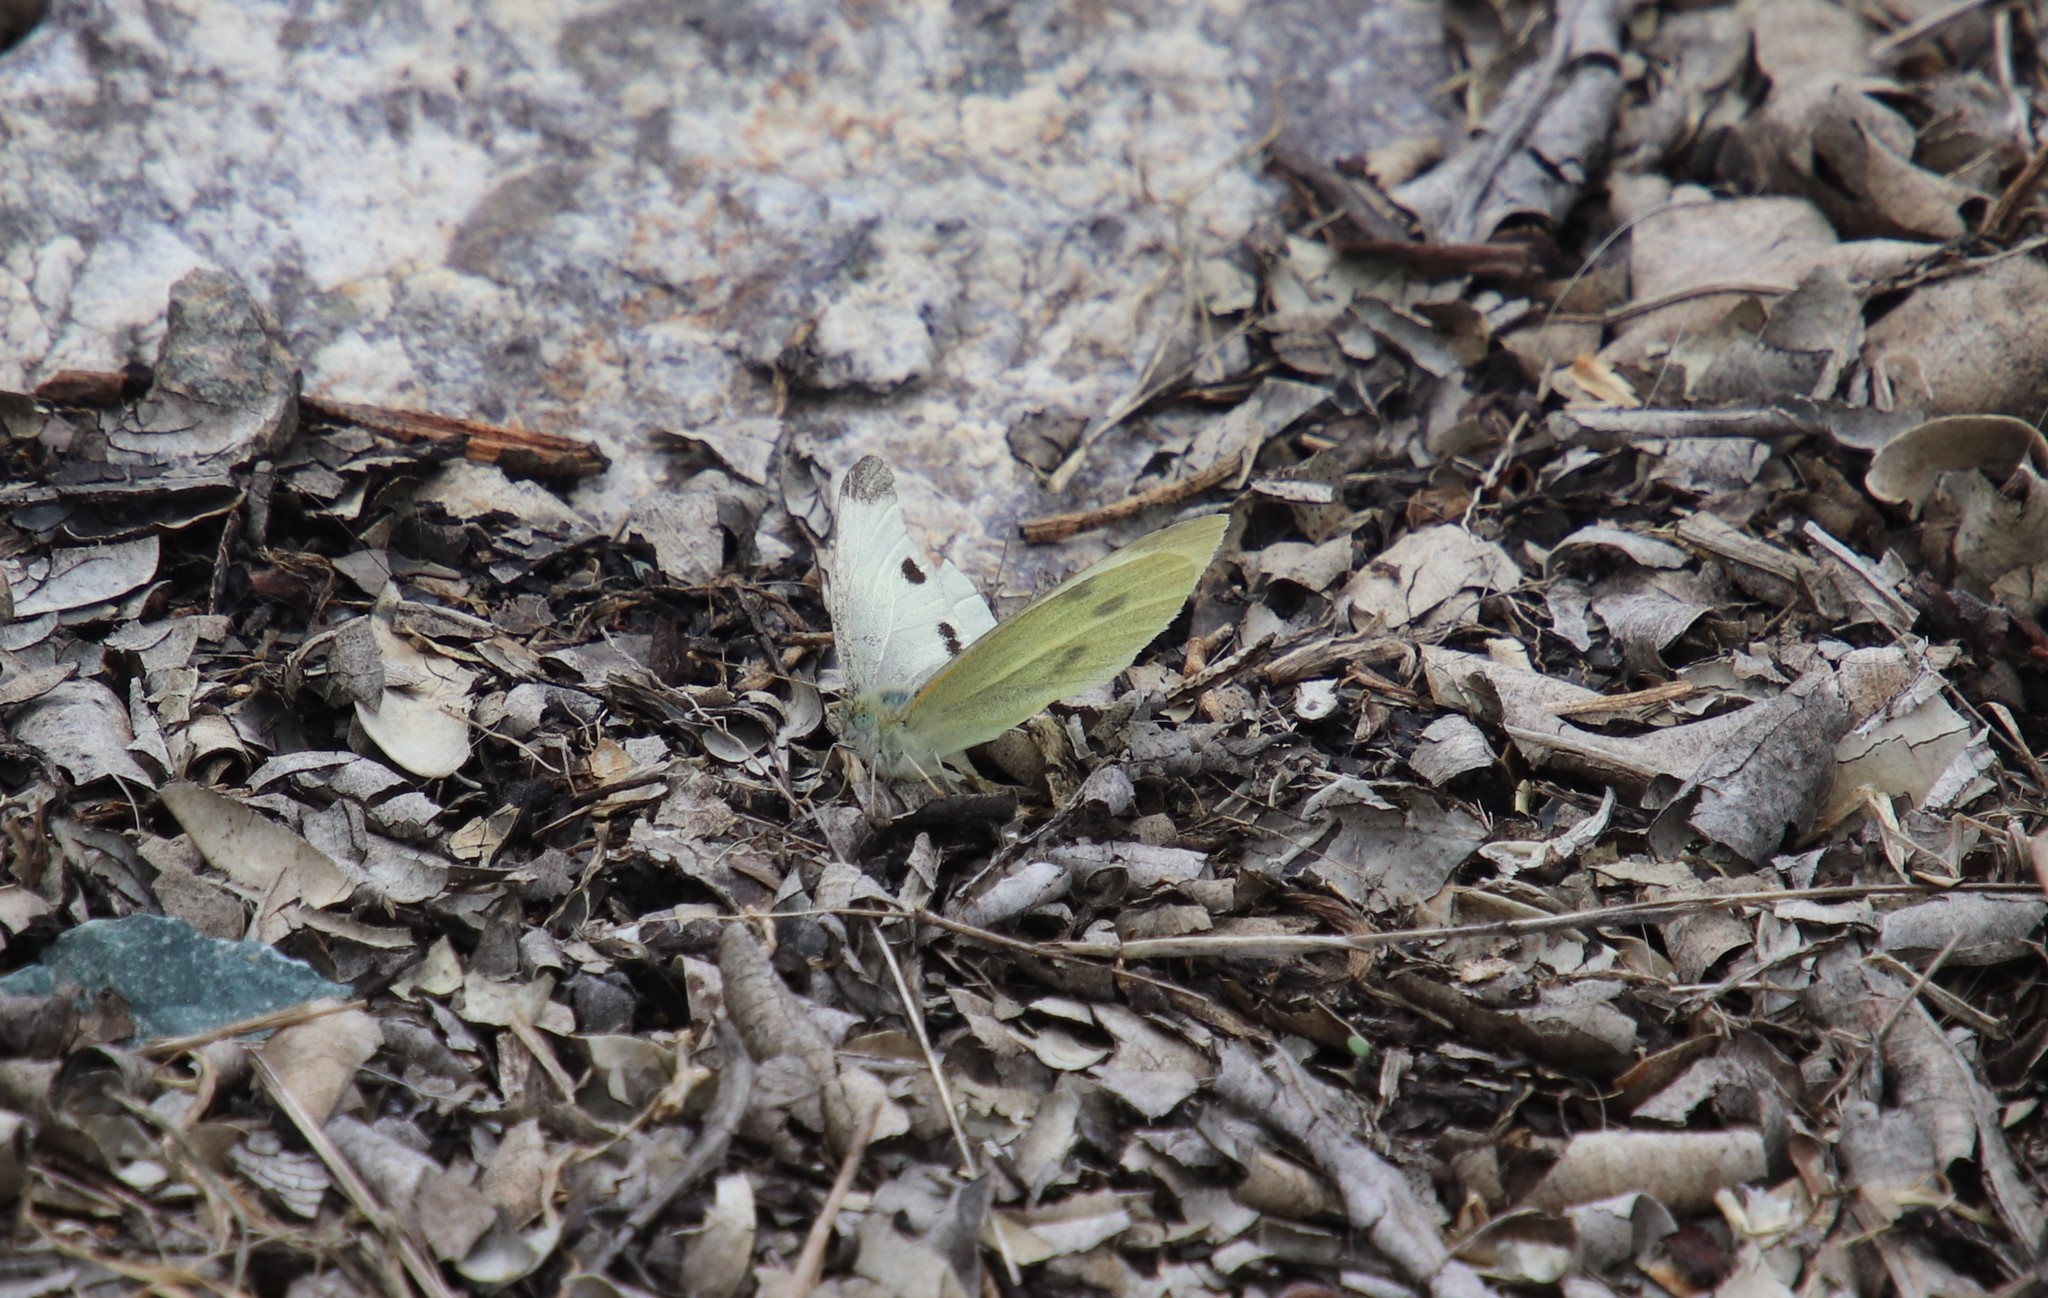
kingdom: Animalia
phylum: Arthropoda
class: Insecta
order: Lepidoptera
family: Pieridae
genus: Pieris
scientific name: Pieris rapae
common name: Small white
